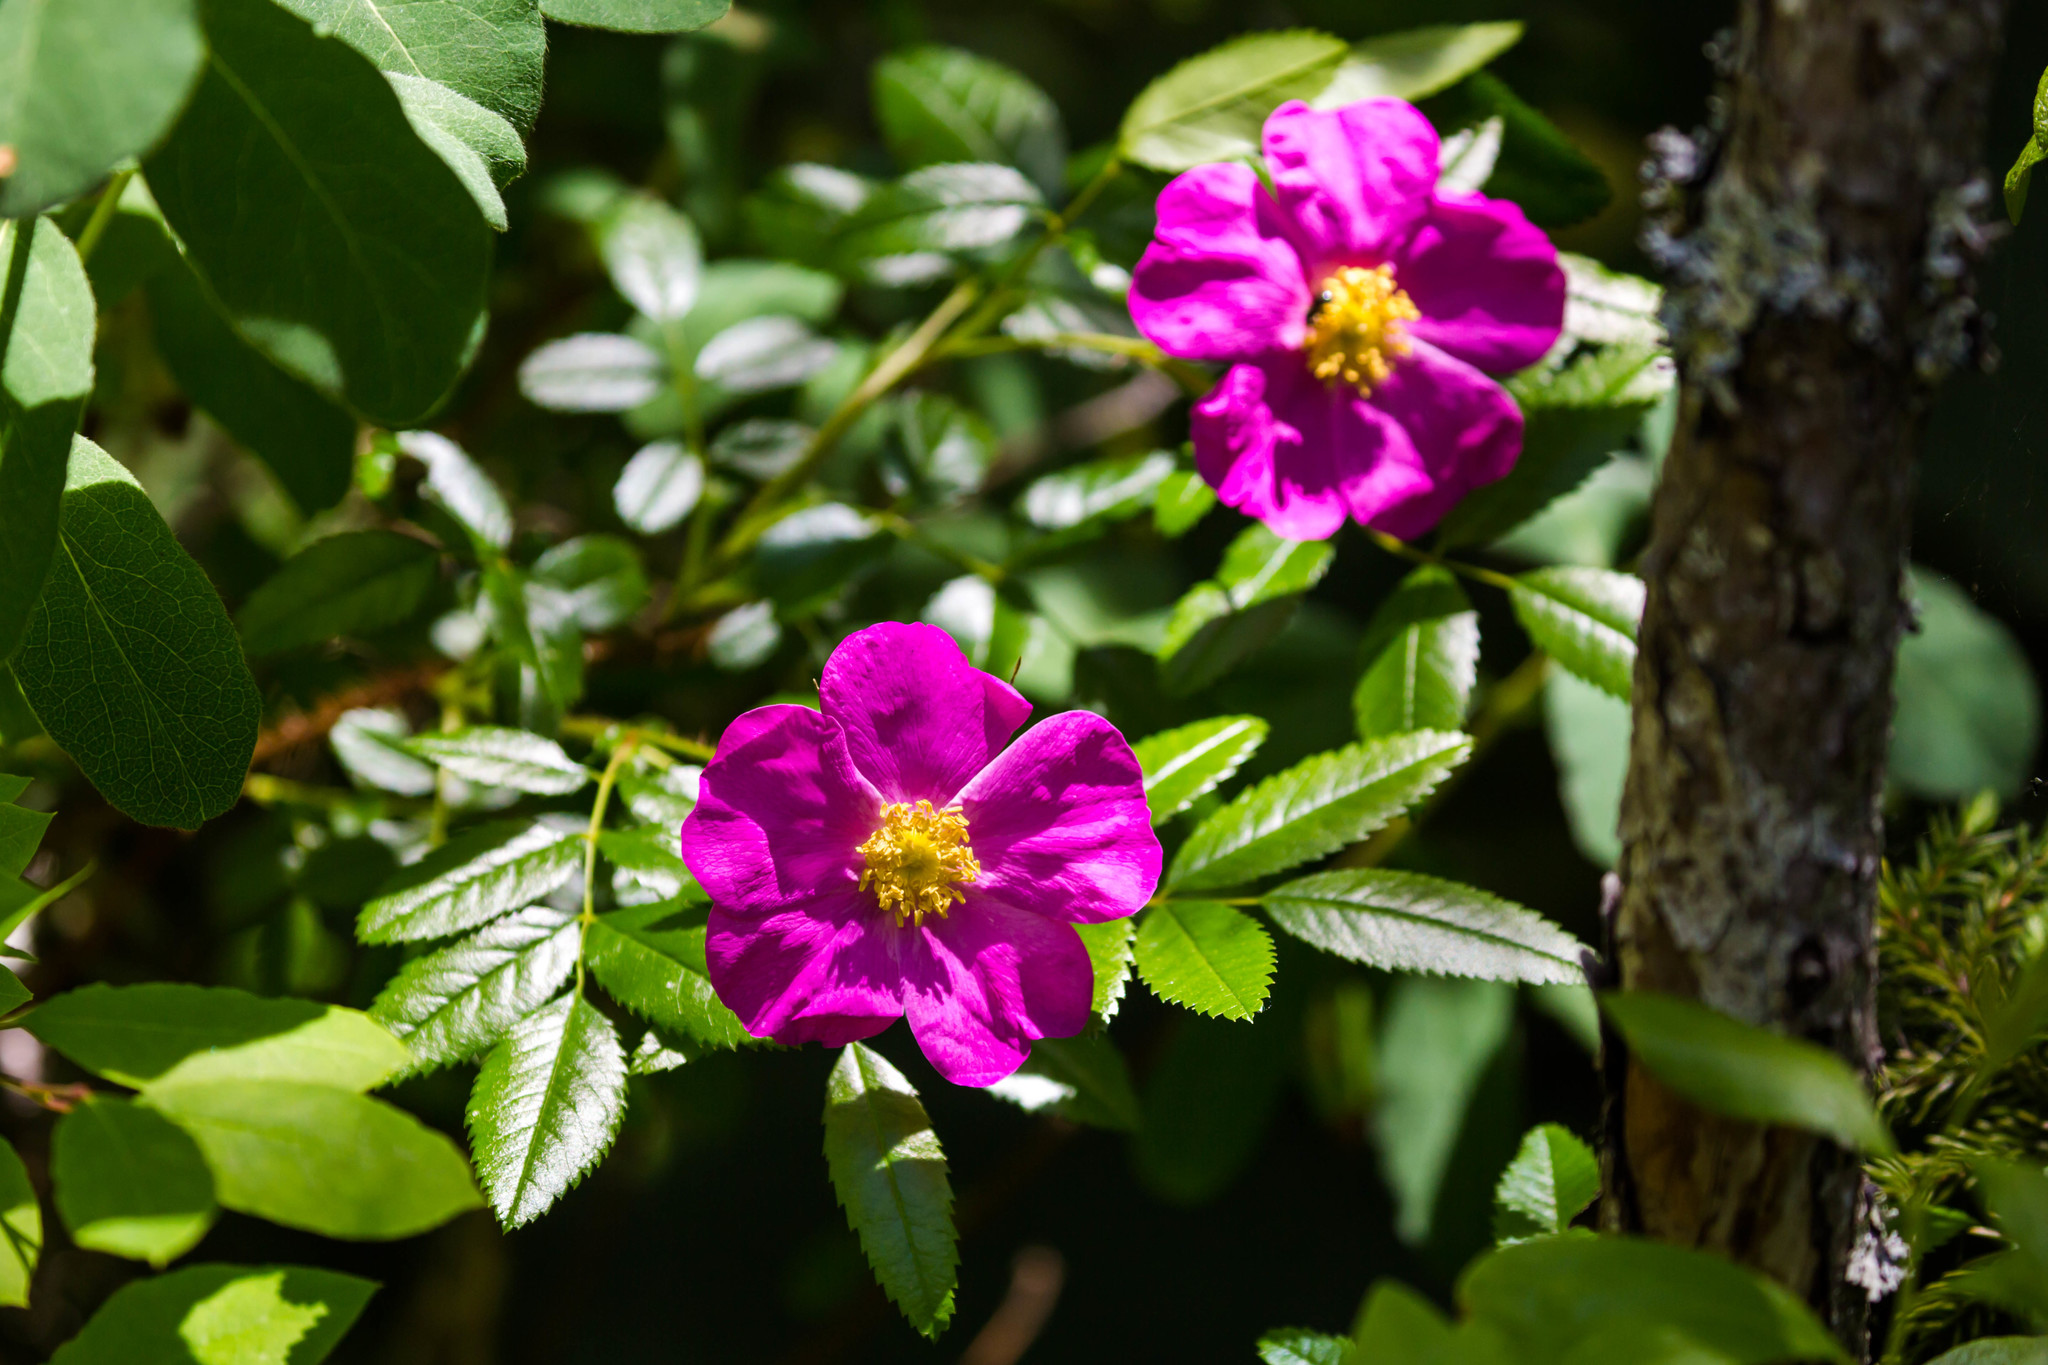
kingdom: Plantae
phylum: Tracheophyta
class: Magnoliopsida
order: Rosales
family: Rosaceae
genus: Rosa
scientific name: Rosa nitida
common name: New england rose
